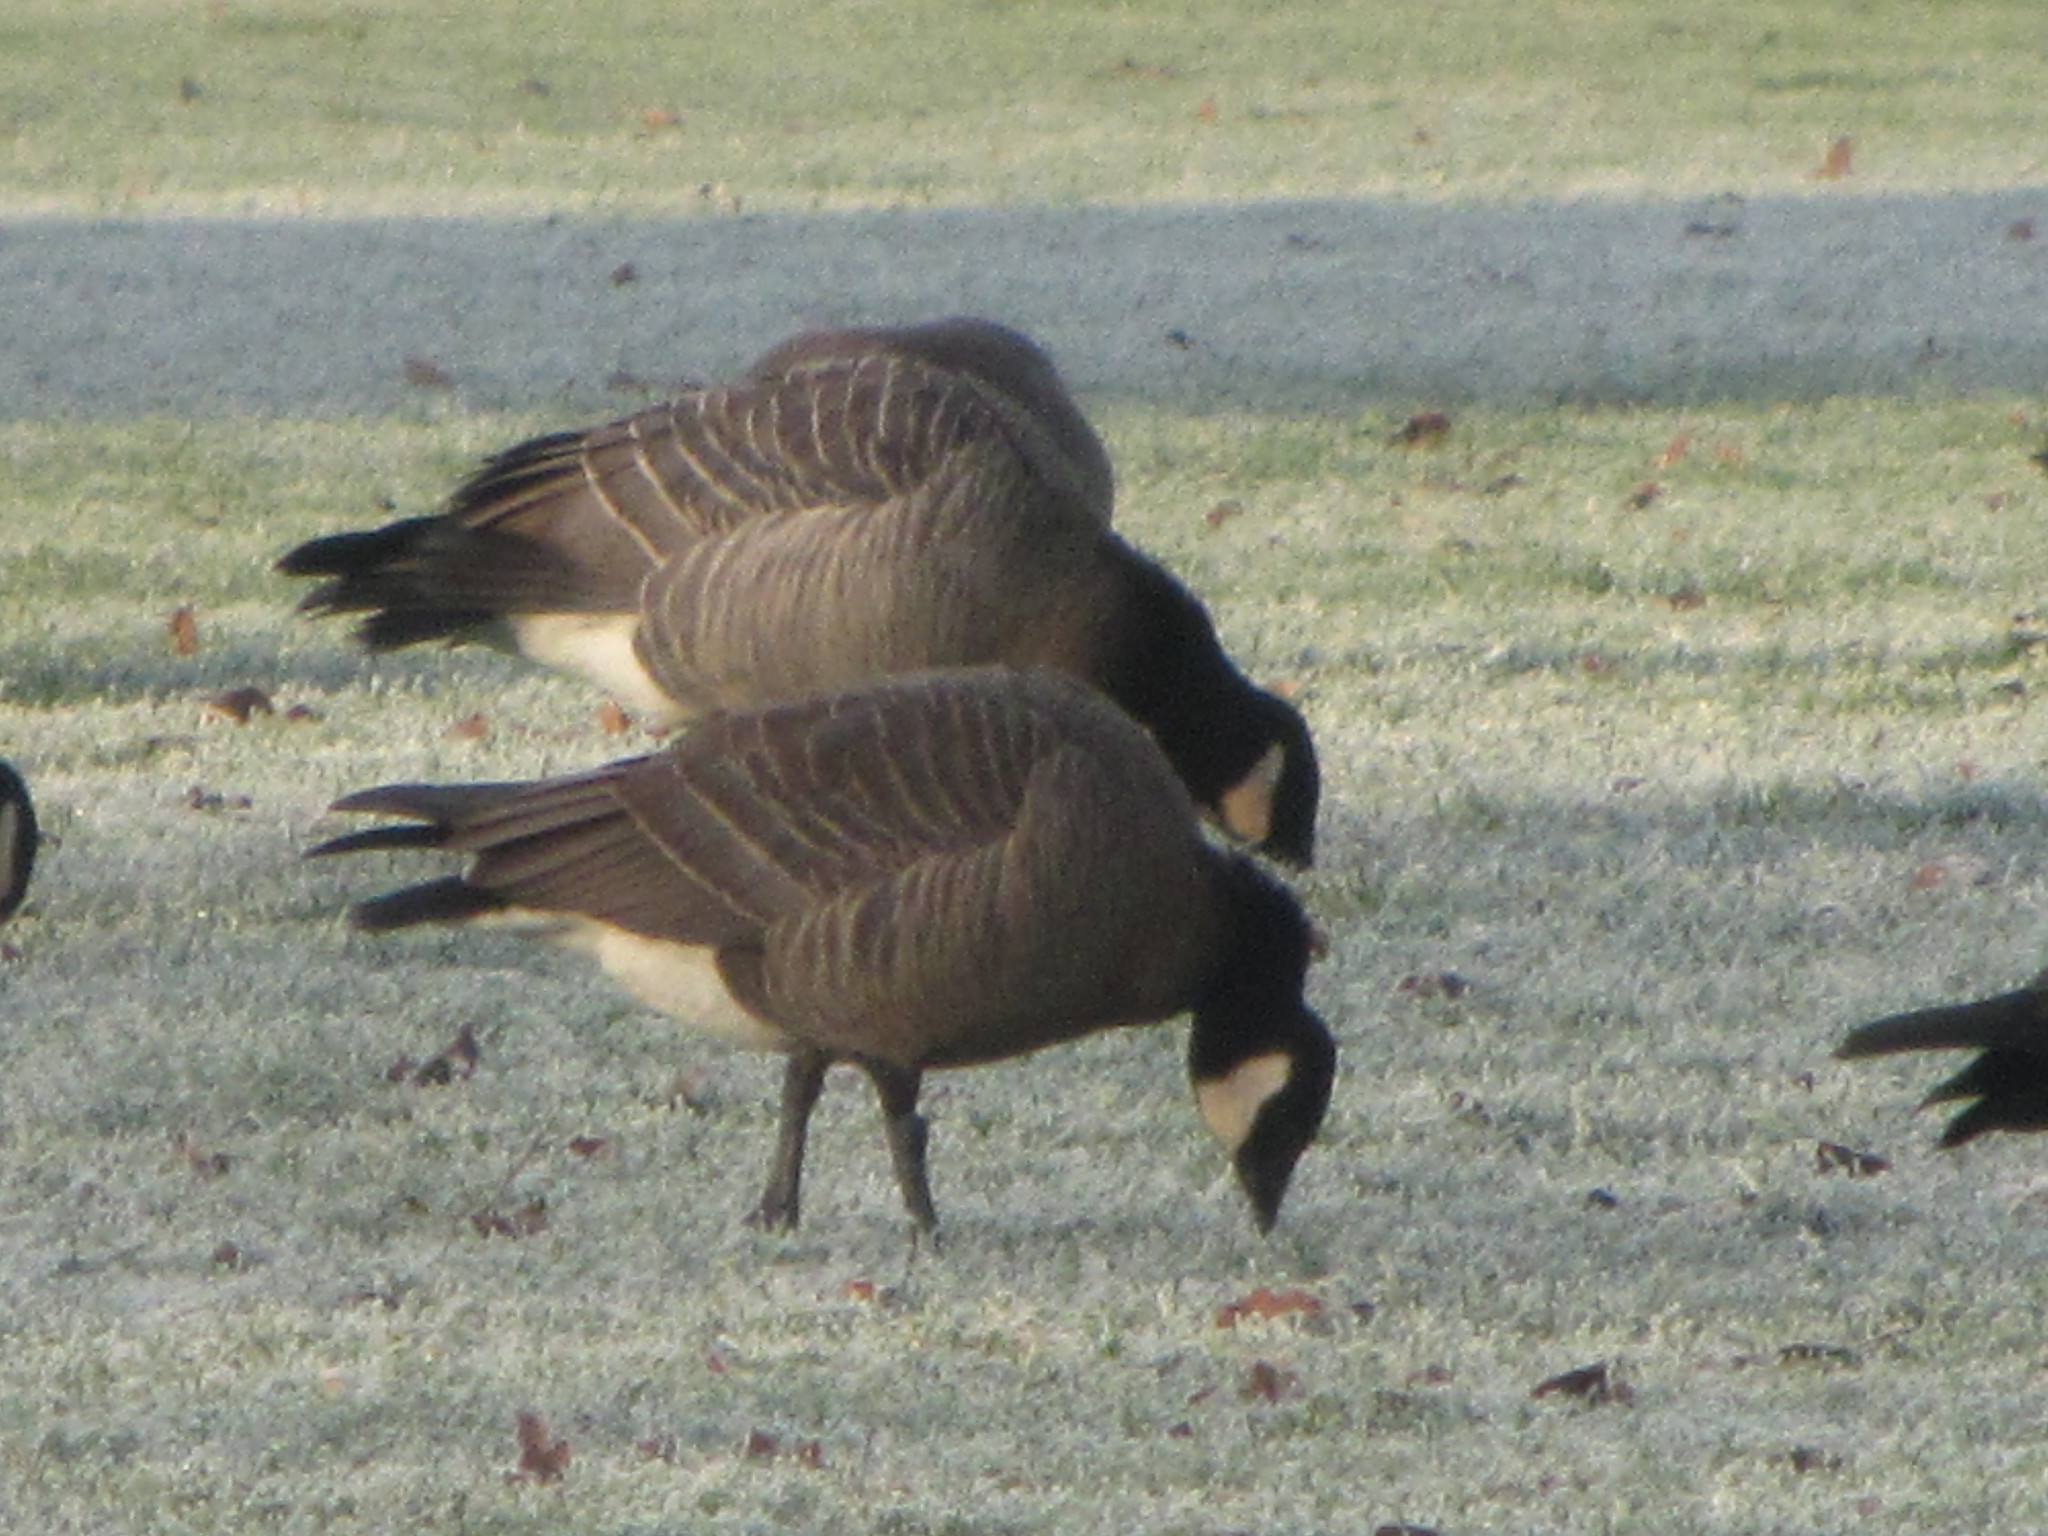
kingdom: Animalia
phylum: Chordata
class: Aves
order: Anseriformes
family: Anatidae
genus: Branta
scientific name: Branta hutchinsii
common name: Cackling goose
